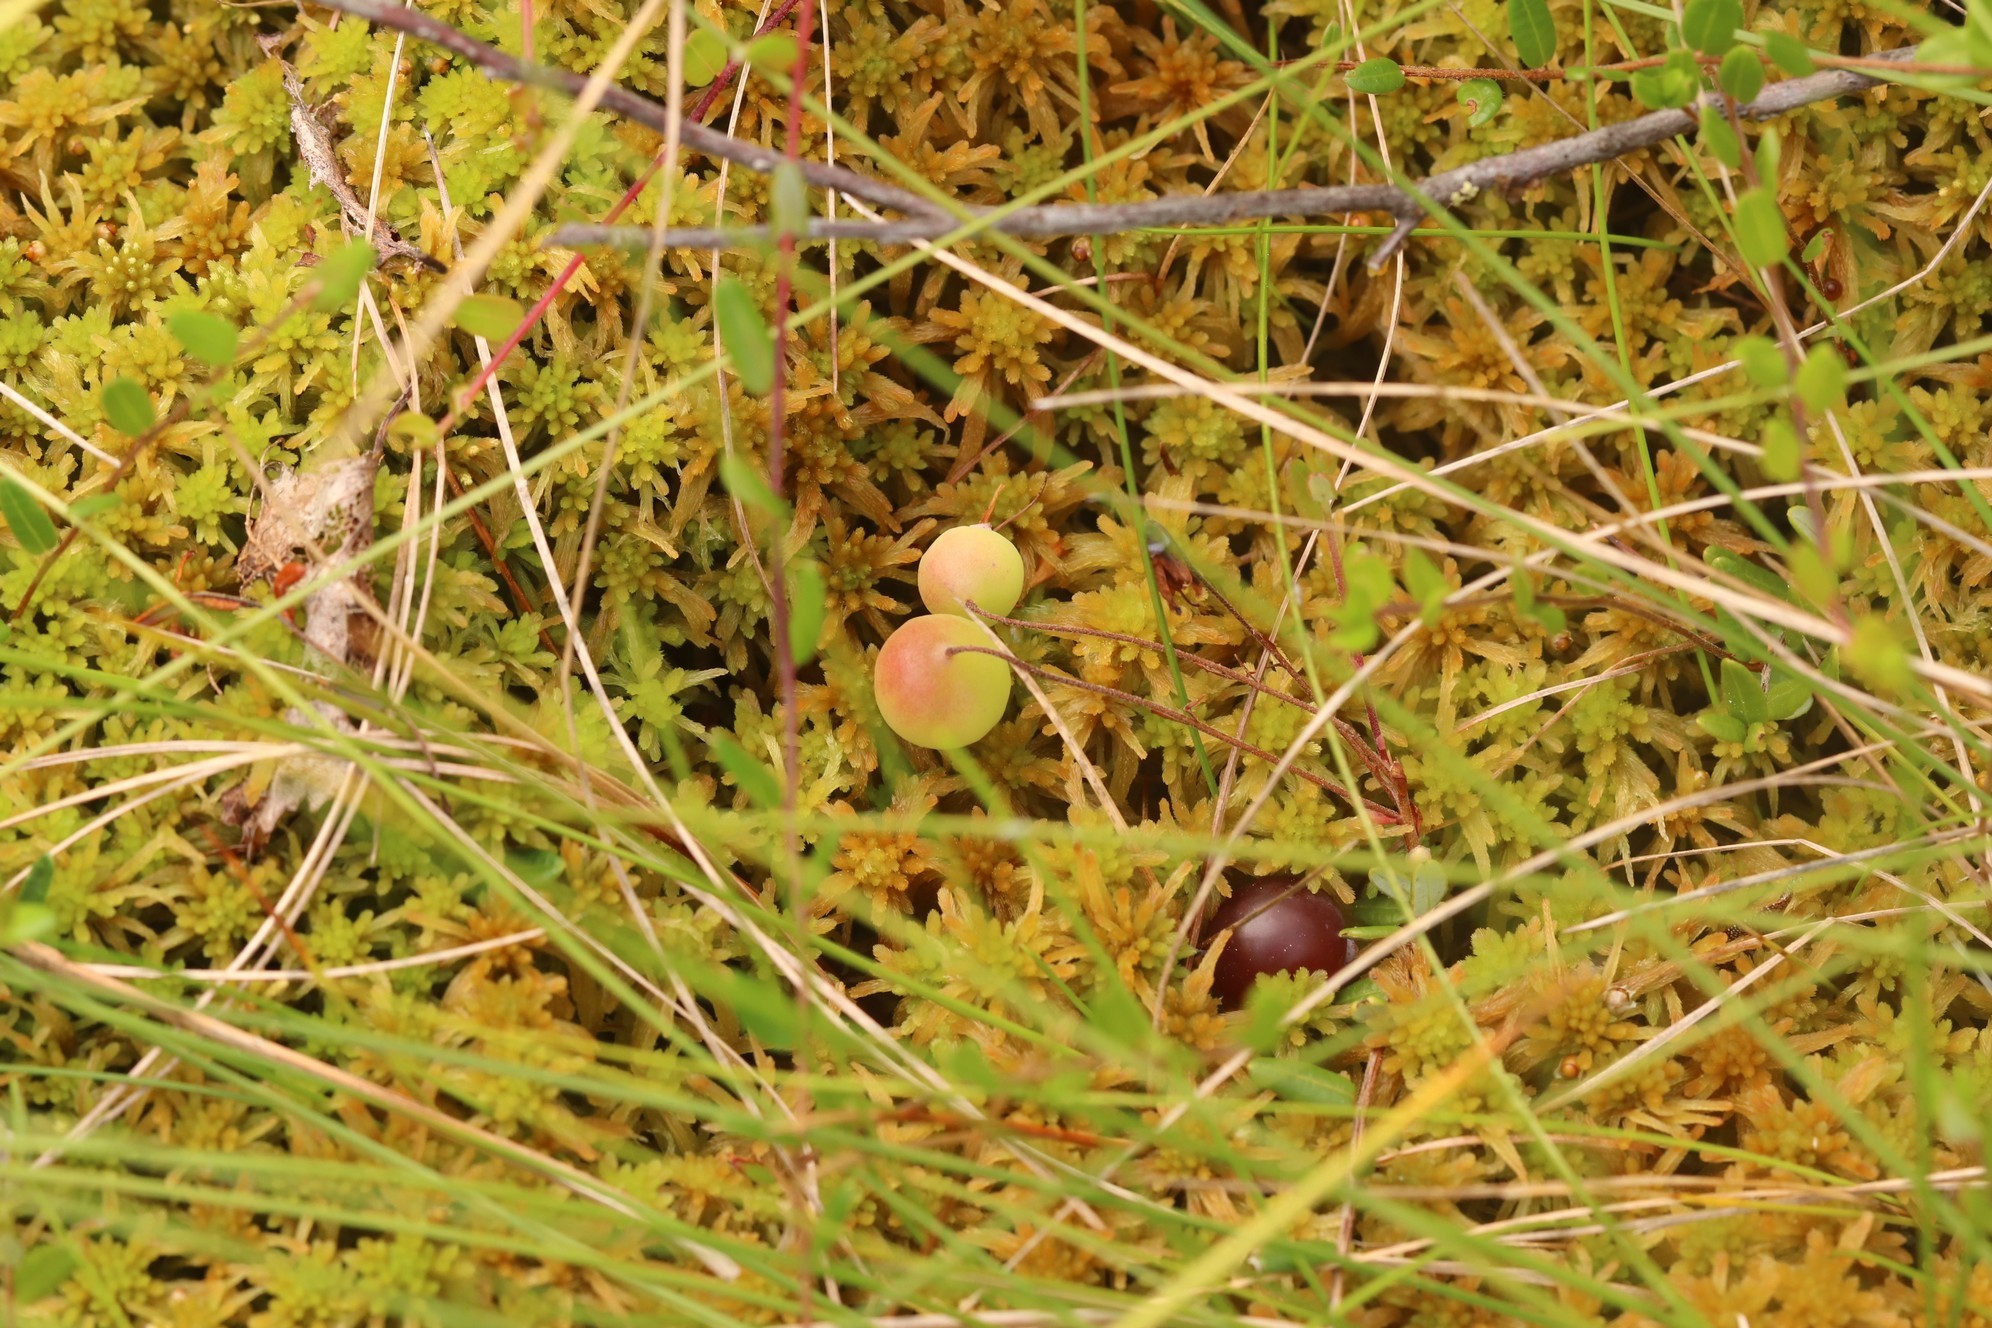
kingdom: Plantae
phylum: Tracheophyta
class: Magnoliopsida
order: Ericales
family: Ericaceae
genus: Vaccinium
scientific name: Vaccinium oxycoccos
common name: Cranberry
